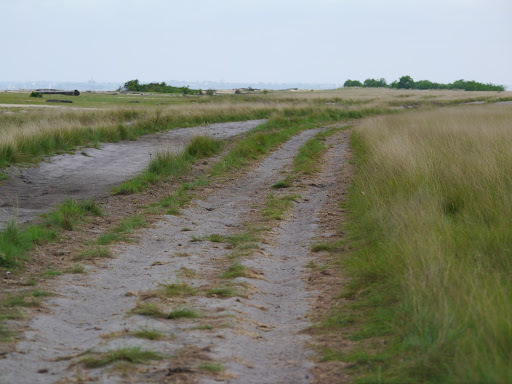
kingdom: Animalia
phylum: Chordata
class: Aves
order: Caprimulgiformes
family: Caprimulgidae
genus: Caprimulgus
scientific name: Caprimulgus
